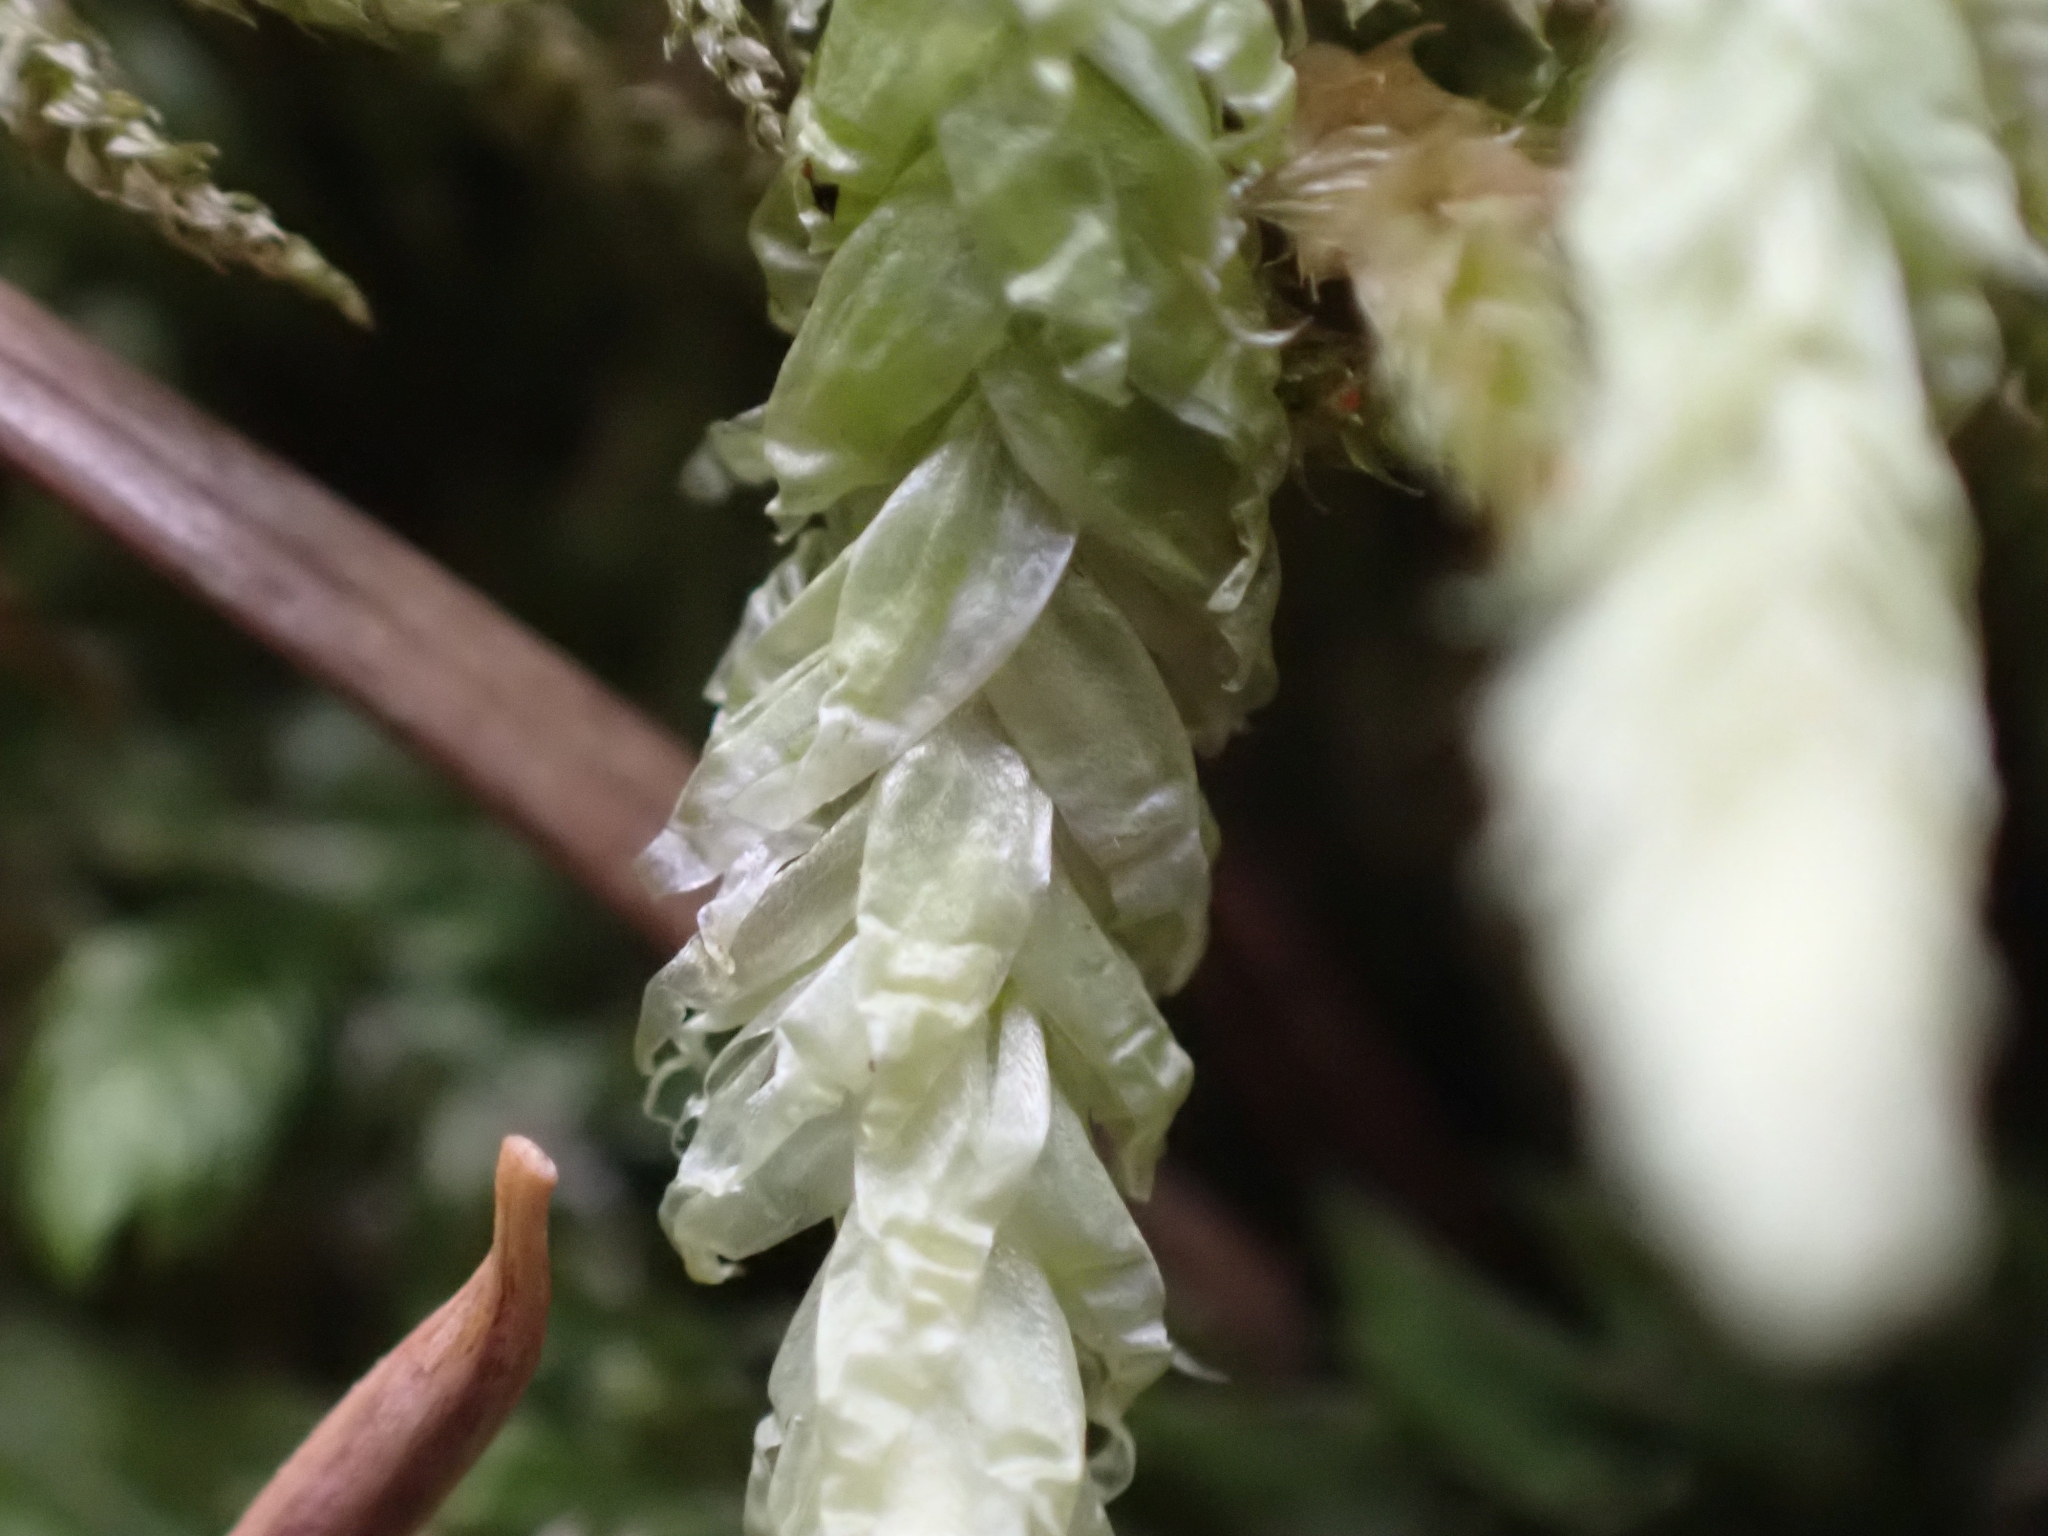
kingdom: Plantae
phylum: Bryophyta
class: Bryopsida
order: Hypnales
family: Plagiotheciaceae
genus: Plagiothecium
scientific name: Plagiothecium undulatum
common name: Waved silk-moss
